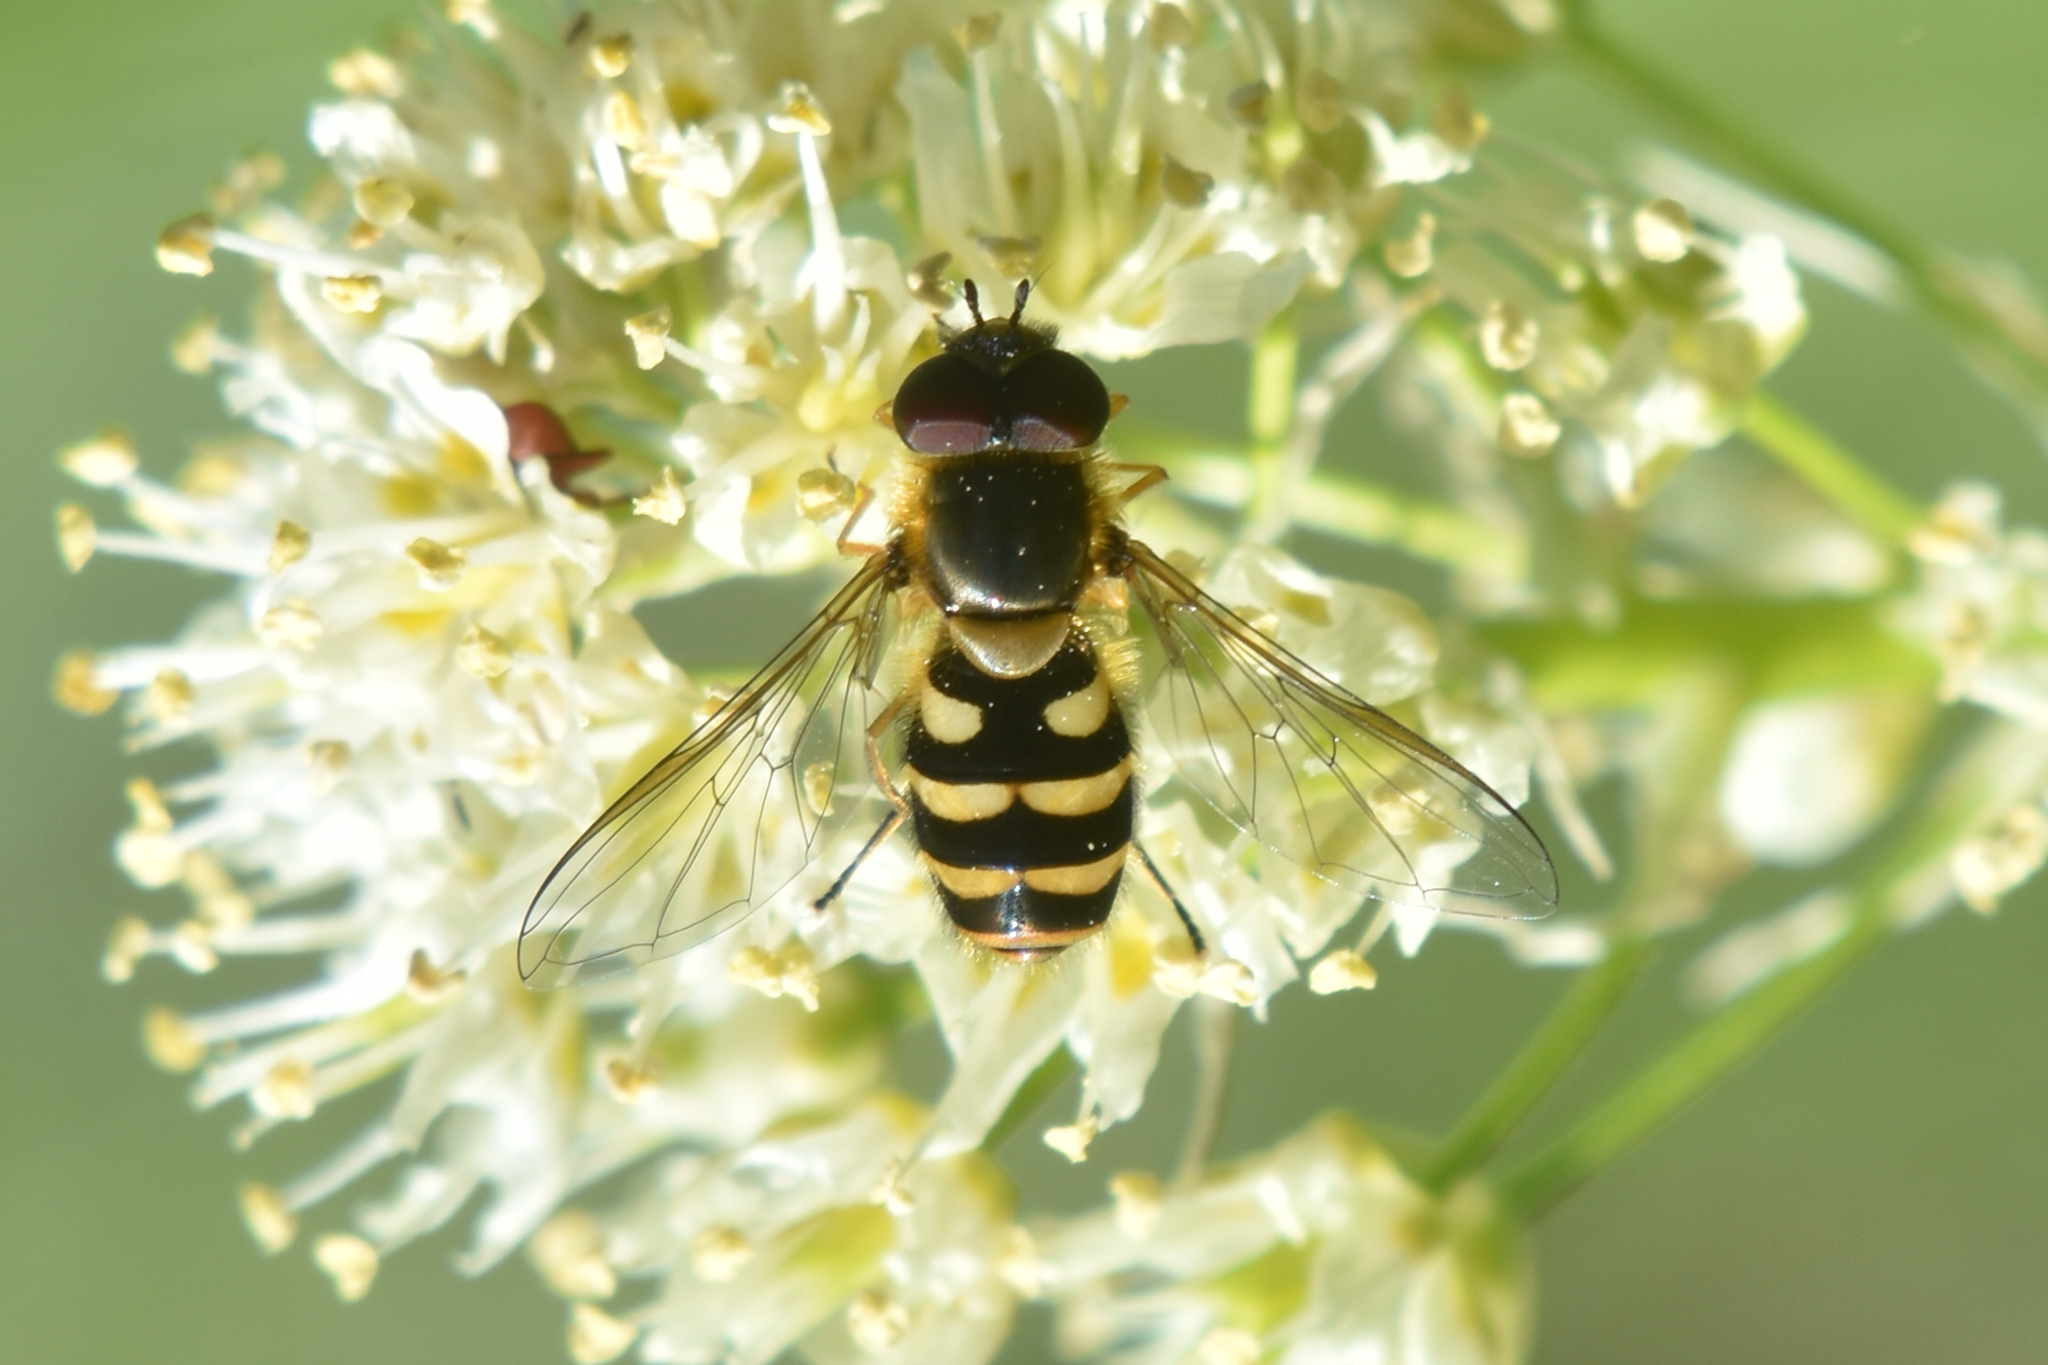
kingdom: Animalia
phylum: Arthropoda
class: Insecta
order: Diptera
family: Syrphidae
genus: Syrphus
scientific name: Syrphus
